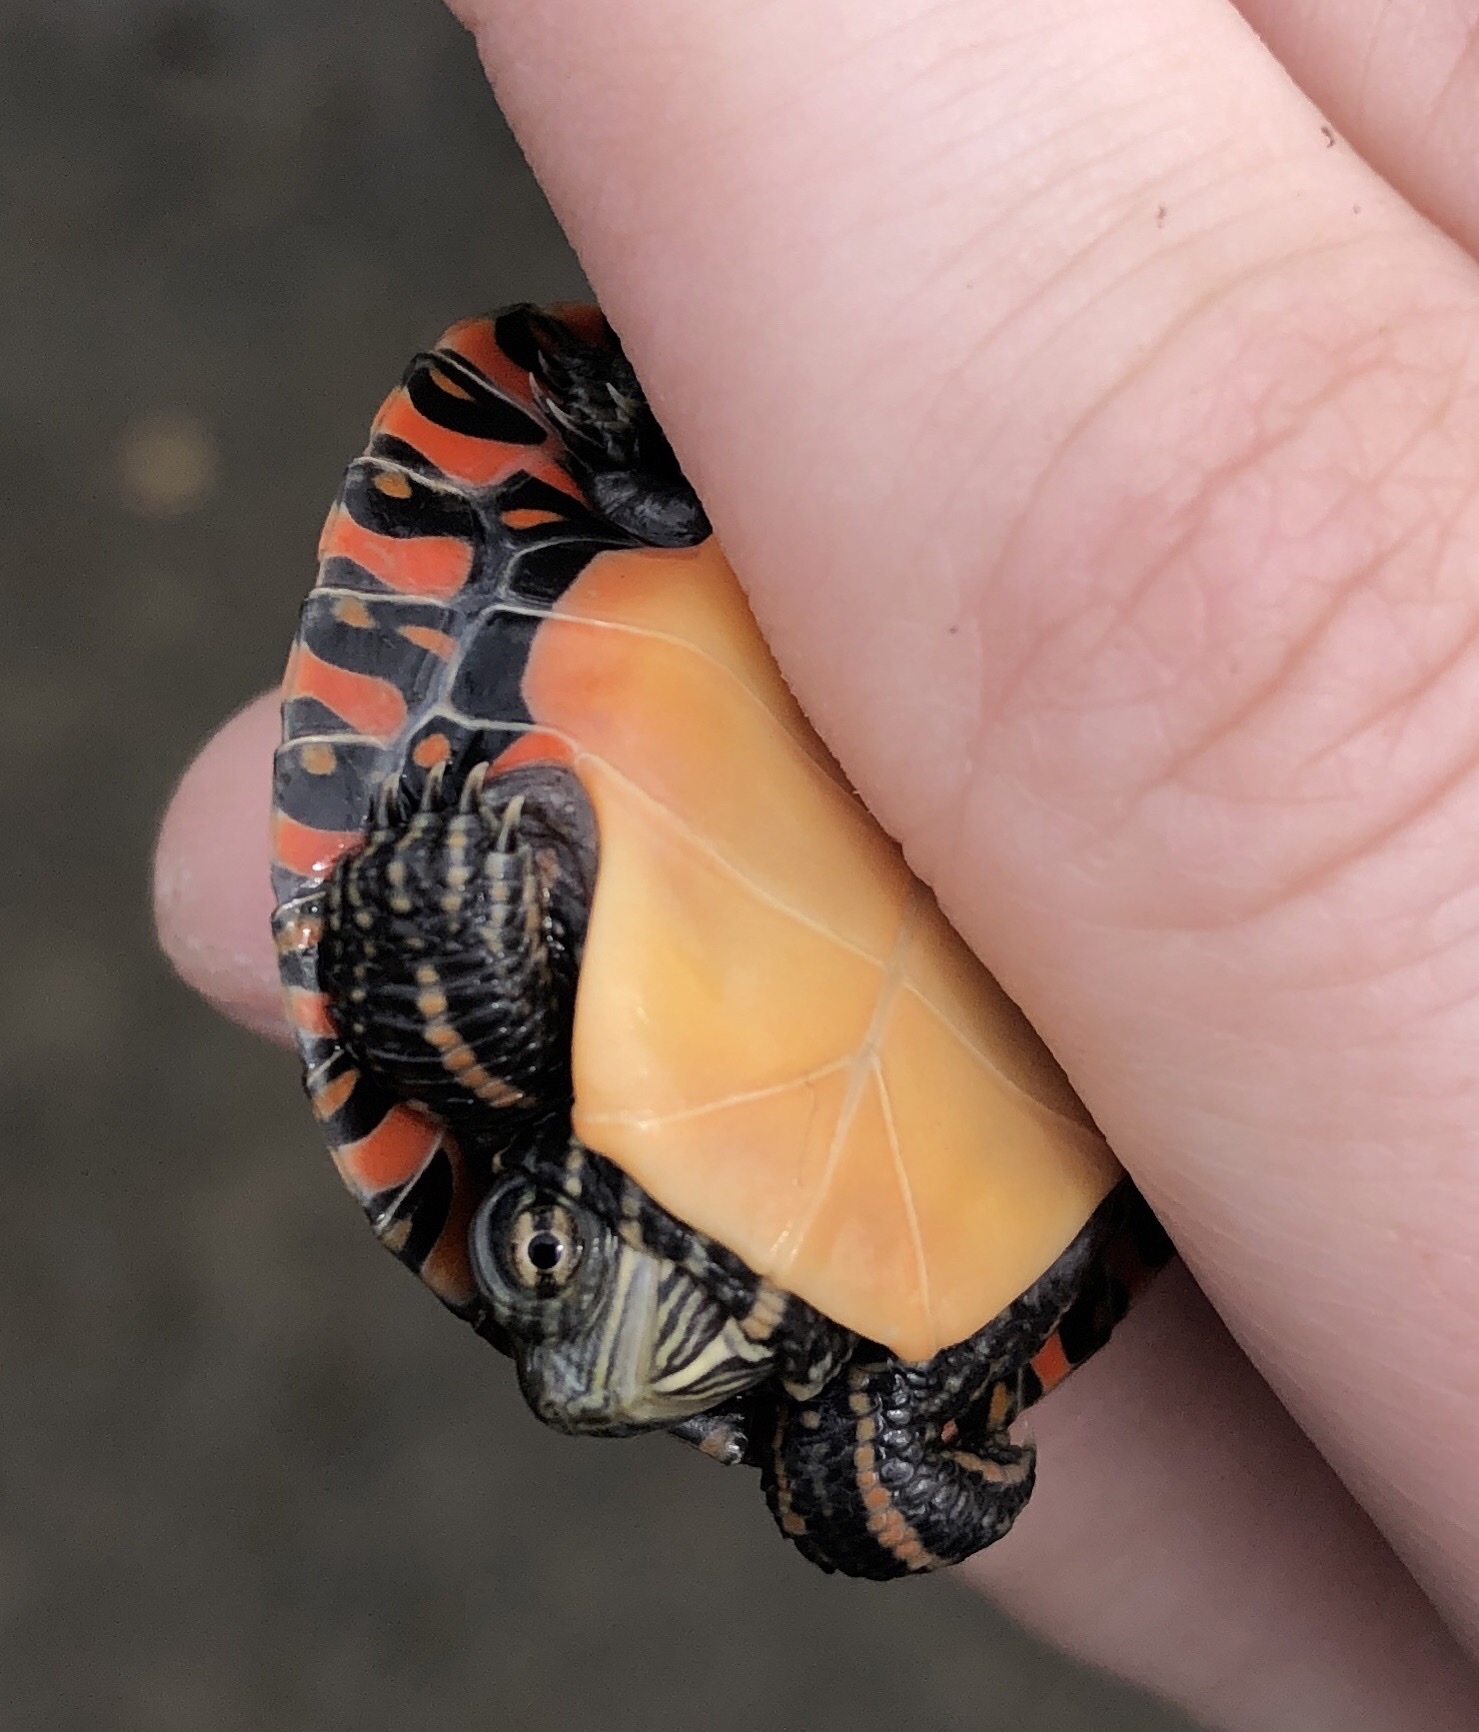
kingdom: Animalia
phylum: Chordata
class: Testudines
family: Emydidae
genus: Chrysemys
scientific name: Chrysemys picta
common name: Painted turtle
